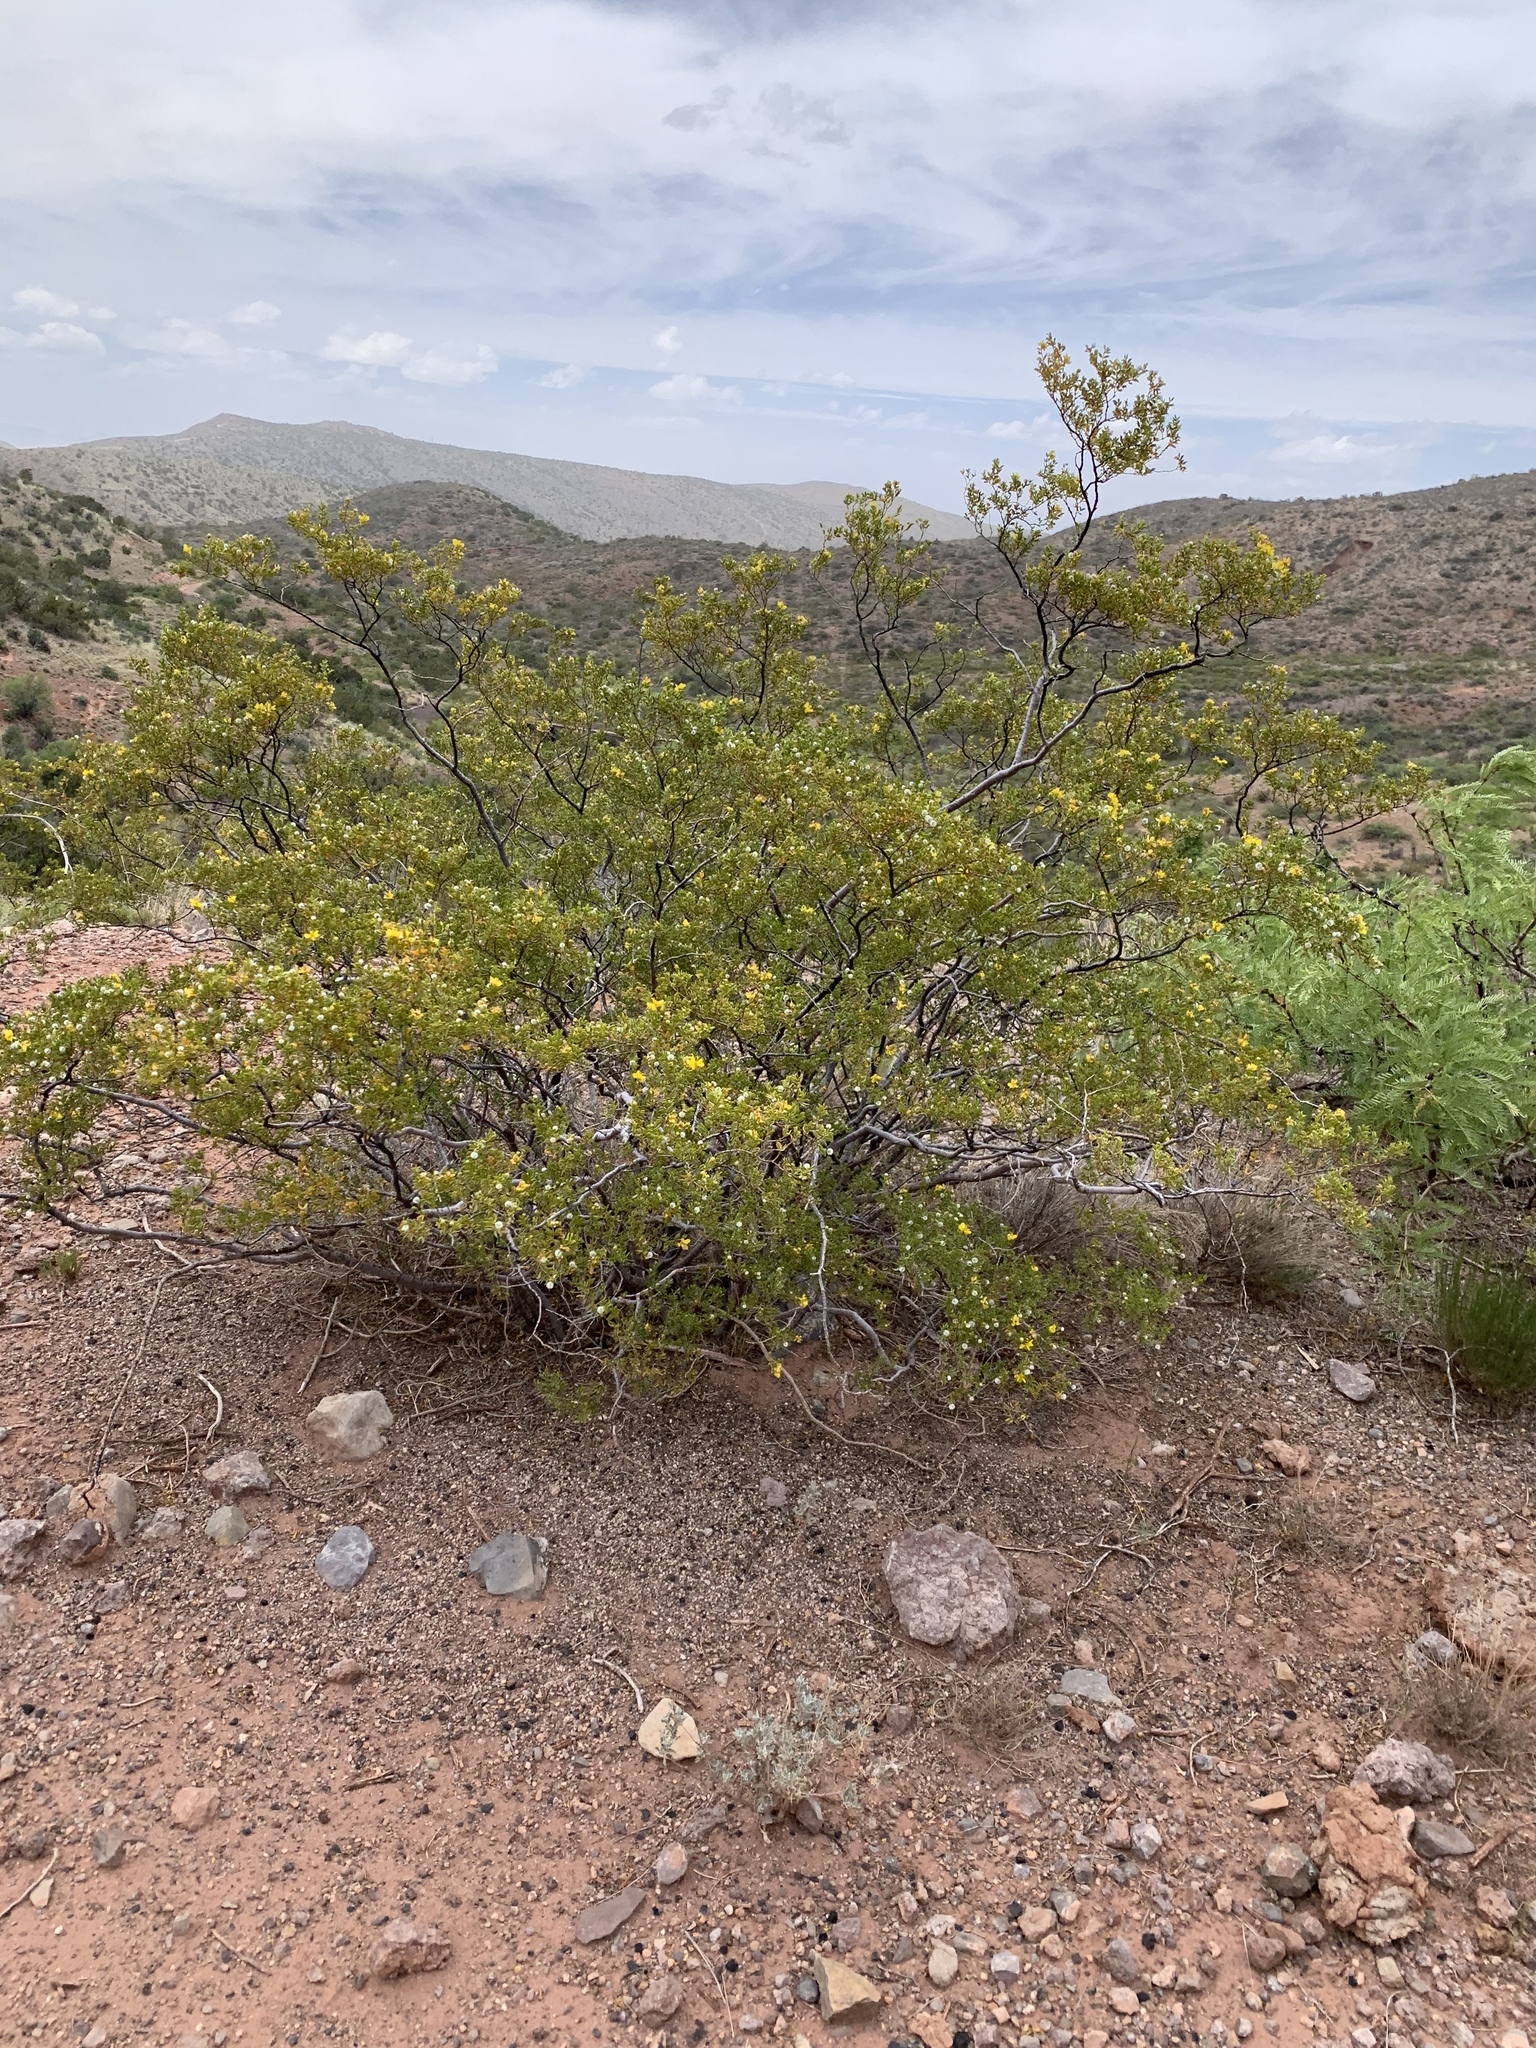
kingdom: Plantae
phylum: Tracheophyta
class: Magnoliopsida
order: Zygophyllales
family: Zygophyllaceae
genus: Larrea
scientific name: Larrea tridentata
